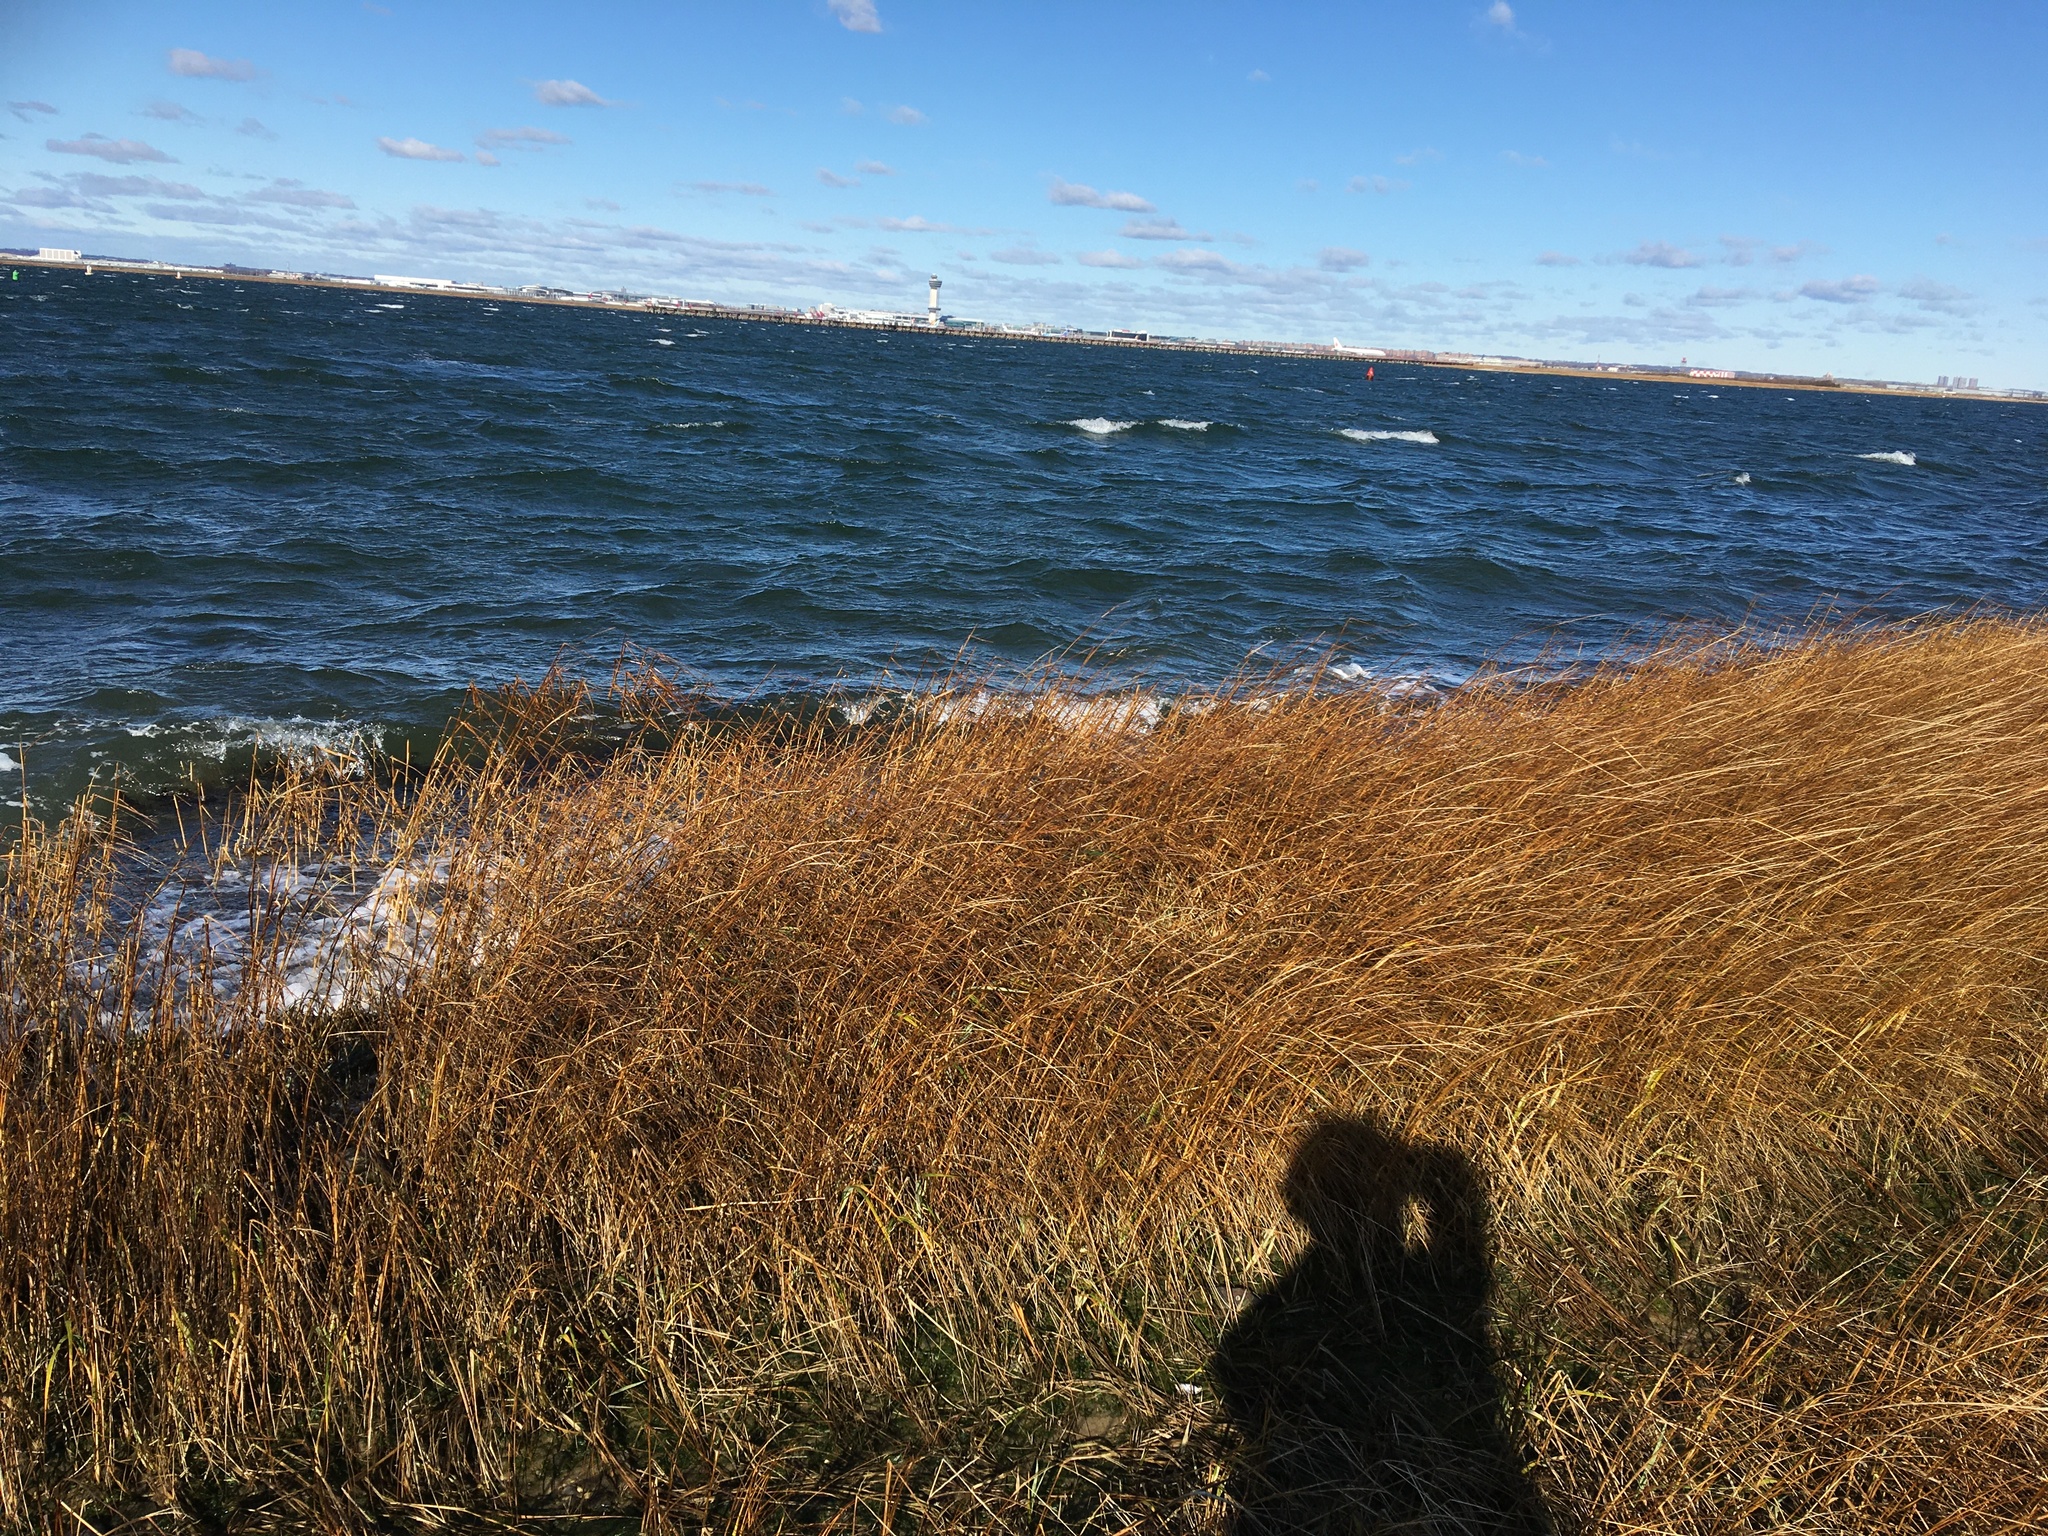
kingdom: Plantae
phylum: Tracheophyta
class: Liliopsida
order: Poales
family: Poaceae
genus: Sporobolus
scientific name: Sporobolus alterniflorus
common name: Atlantic cordgrass
